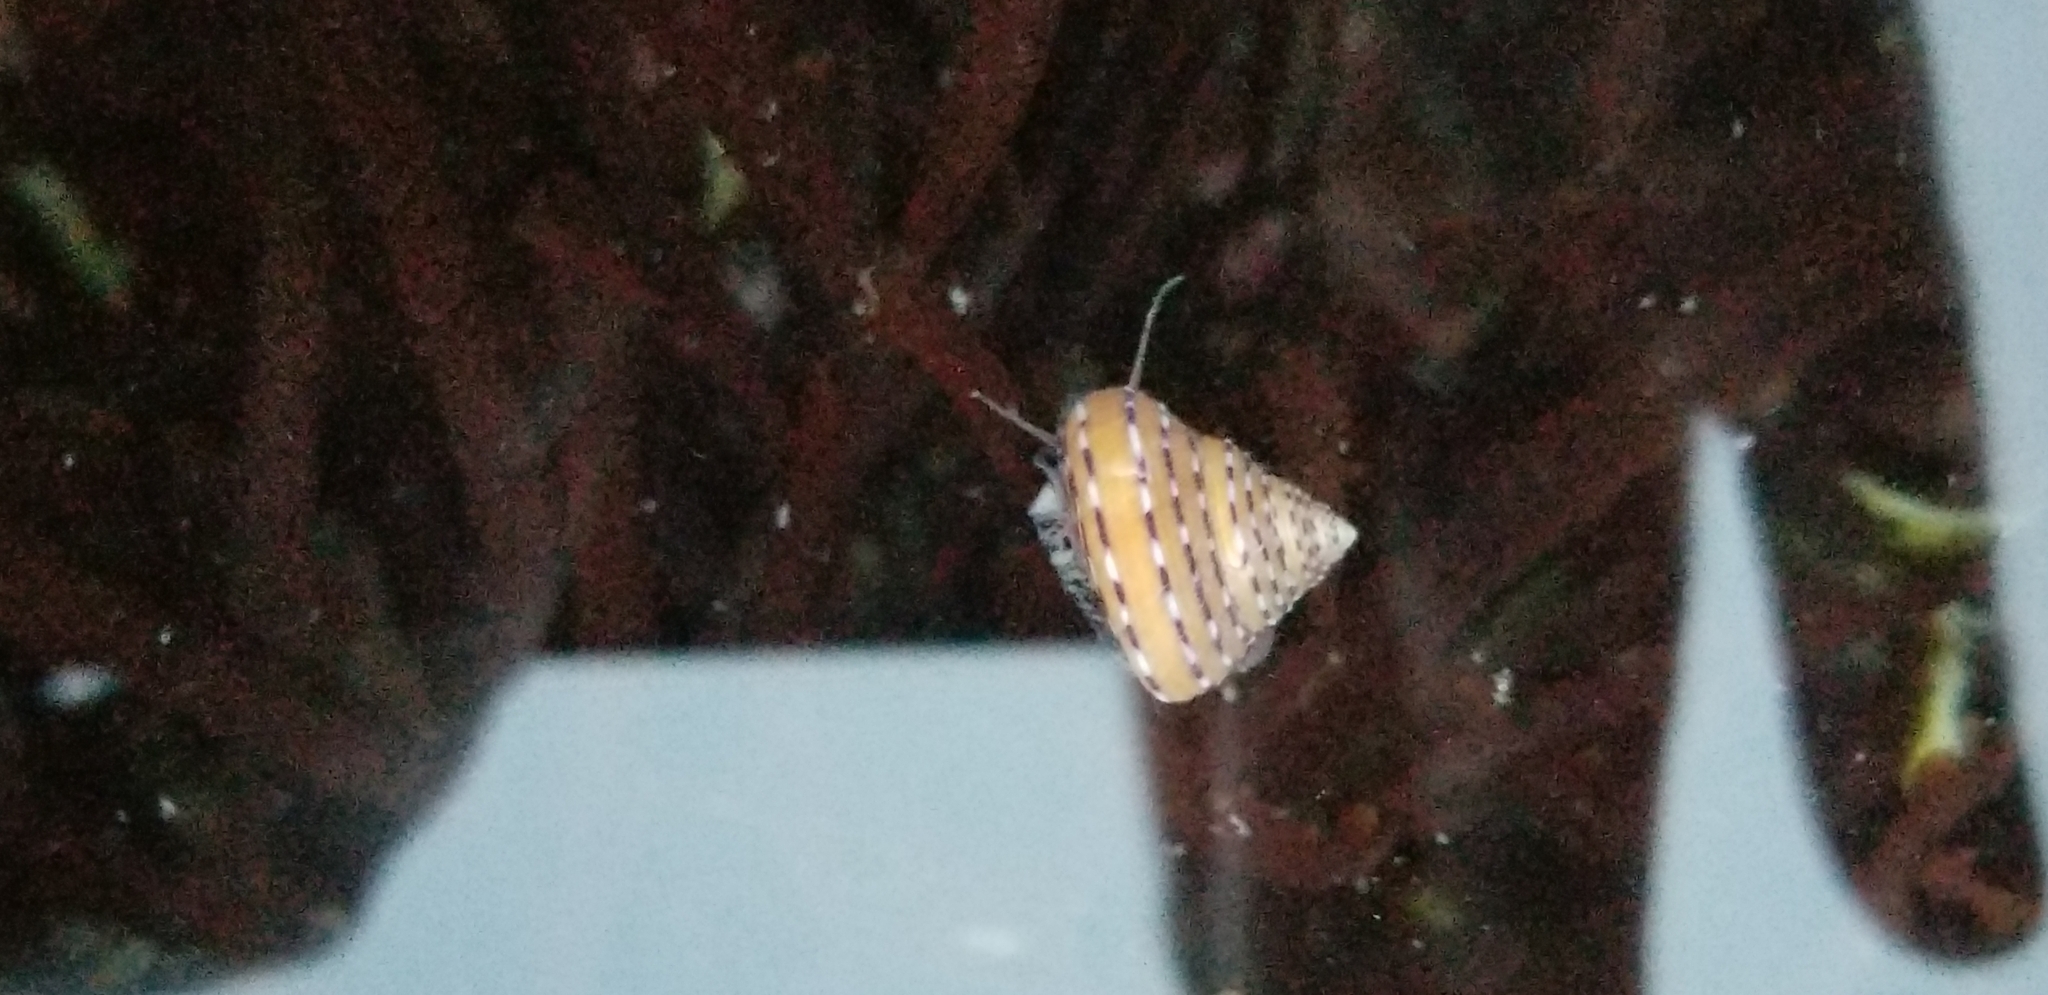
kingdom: Animalia
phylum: Mollusca
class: Gastropoda
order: Trochida
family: Calliostomatidae
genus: Calliostoma
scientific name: Calliostoma tricolor
